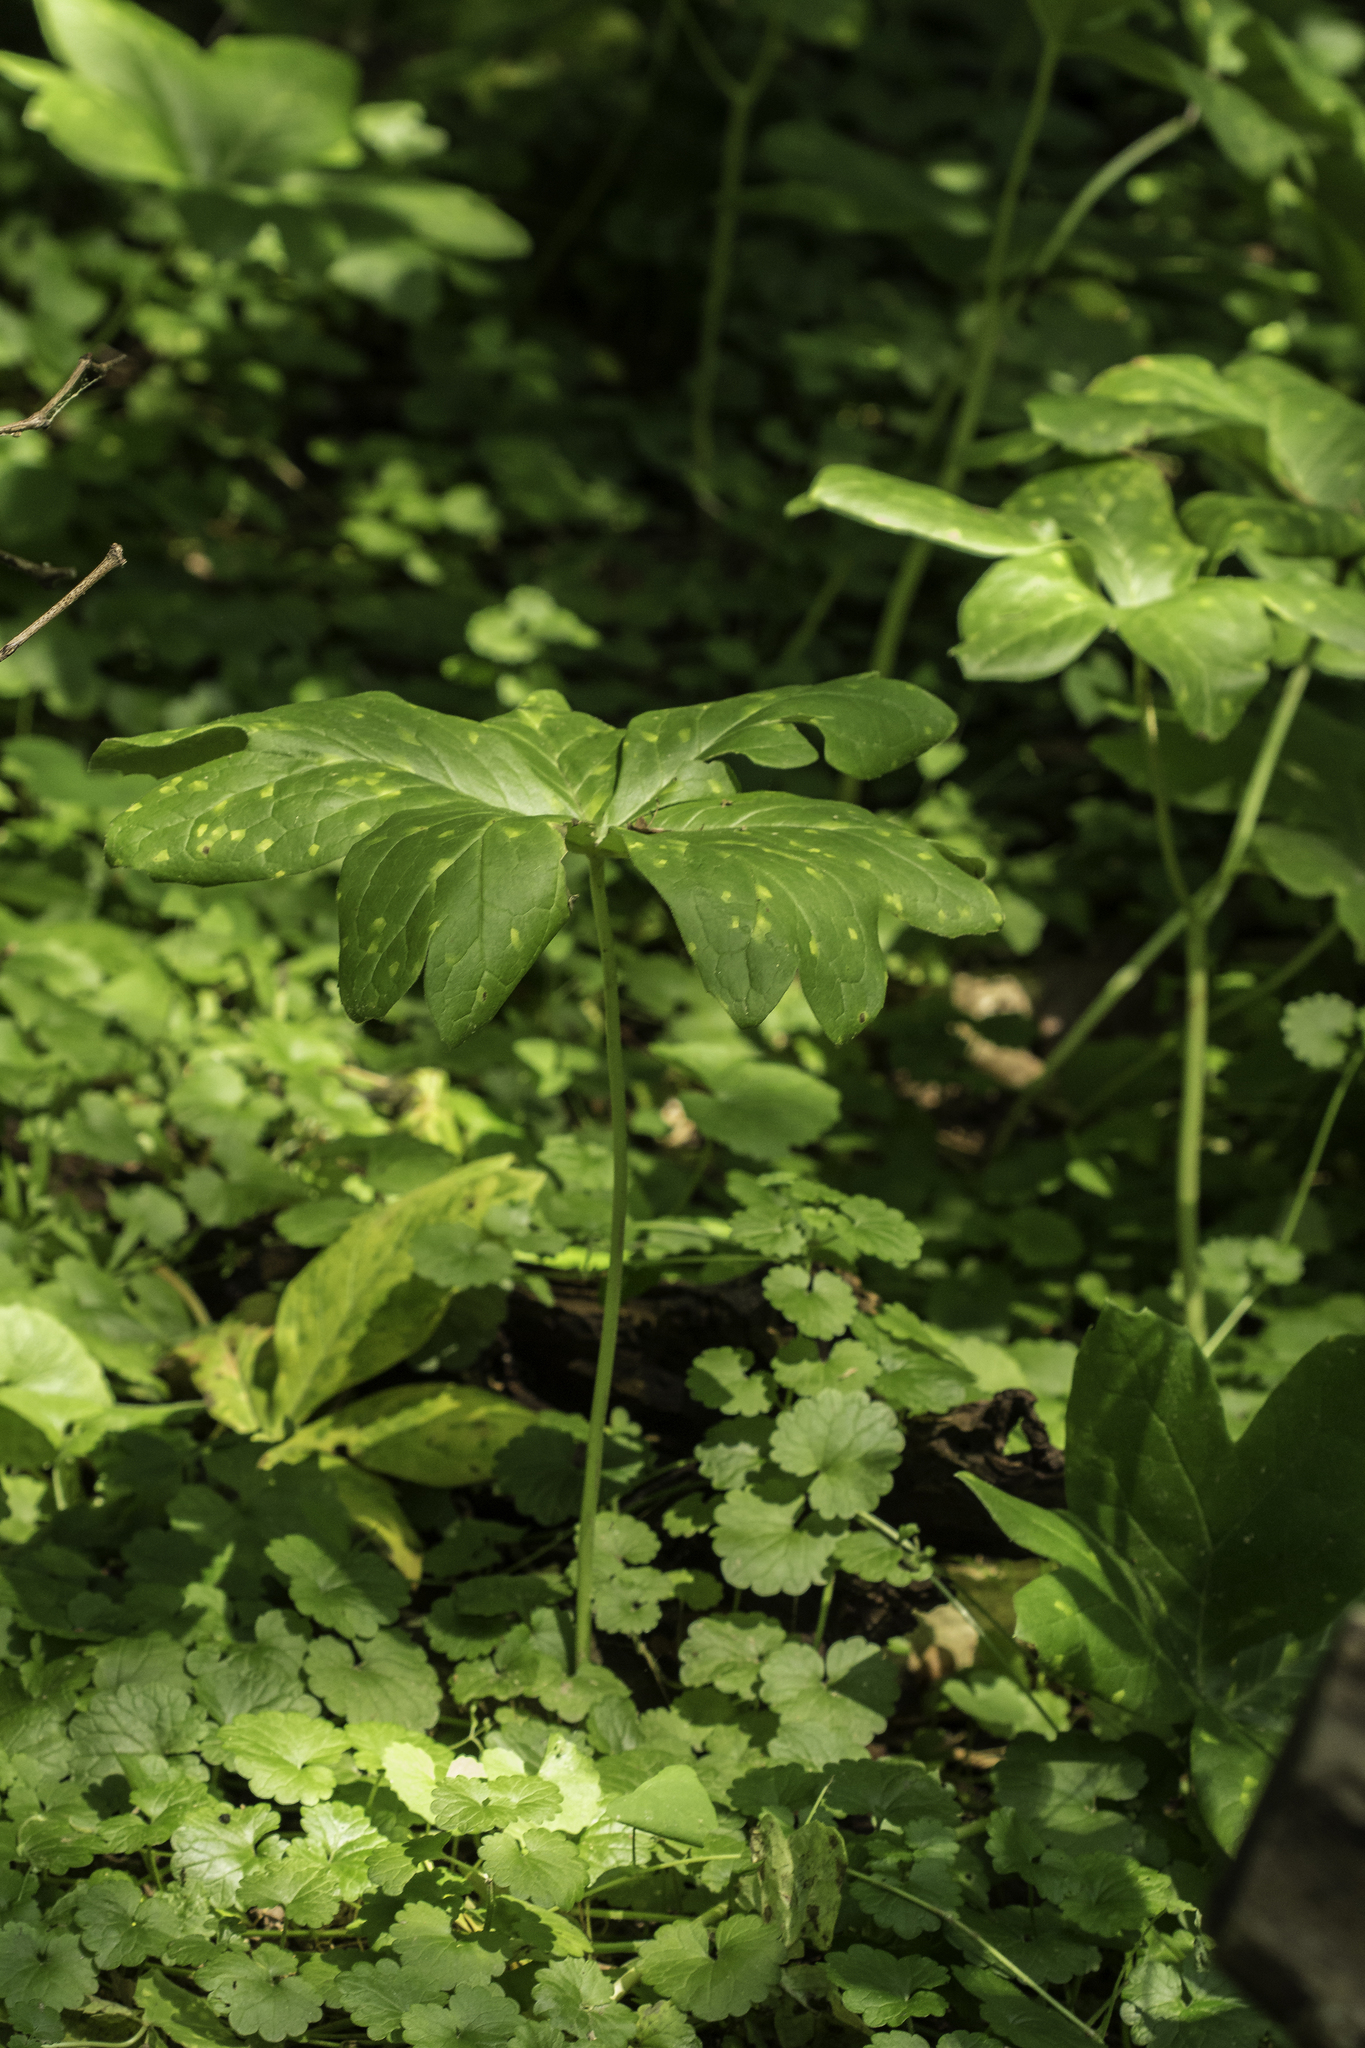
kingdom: Plantae
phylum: Tracheophyta
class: Magnoliopsida
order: Ranunculales
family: Berberidaceae
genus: Podophyllum
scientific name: Podophyllum peltatum
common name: Wild mandrake
